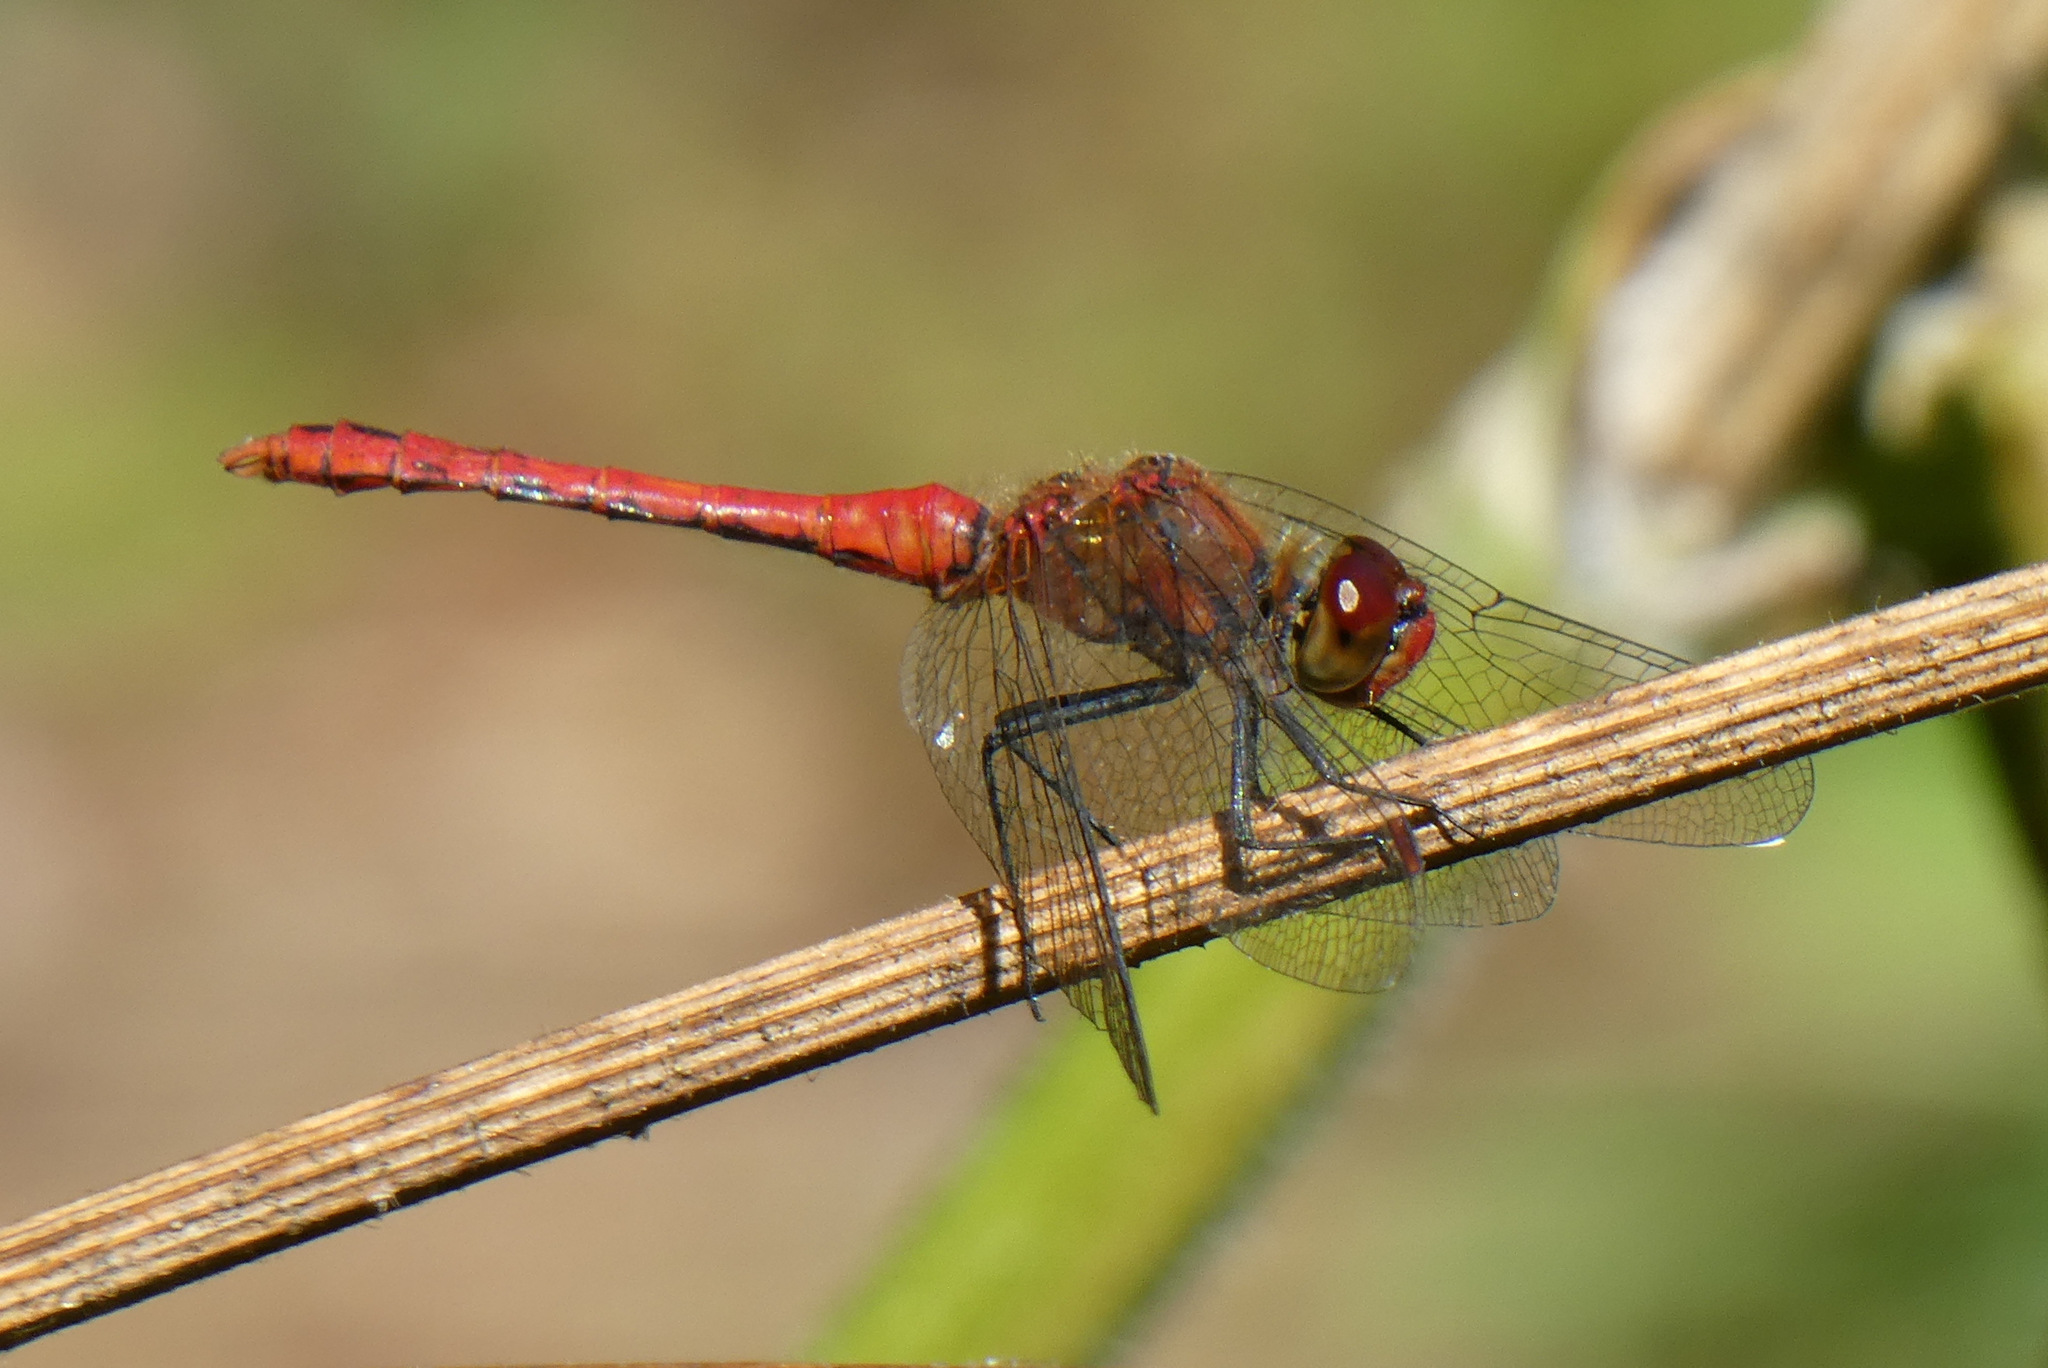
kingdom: Animalia
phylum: Arthropoda
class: Insecta
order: Odonata
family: Libellulidae
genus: Sympetrum
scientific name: Sympetrum sanguineum
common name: Ruddy darter
